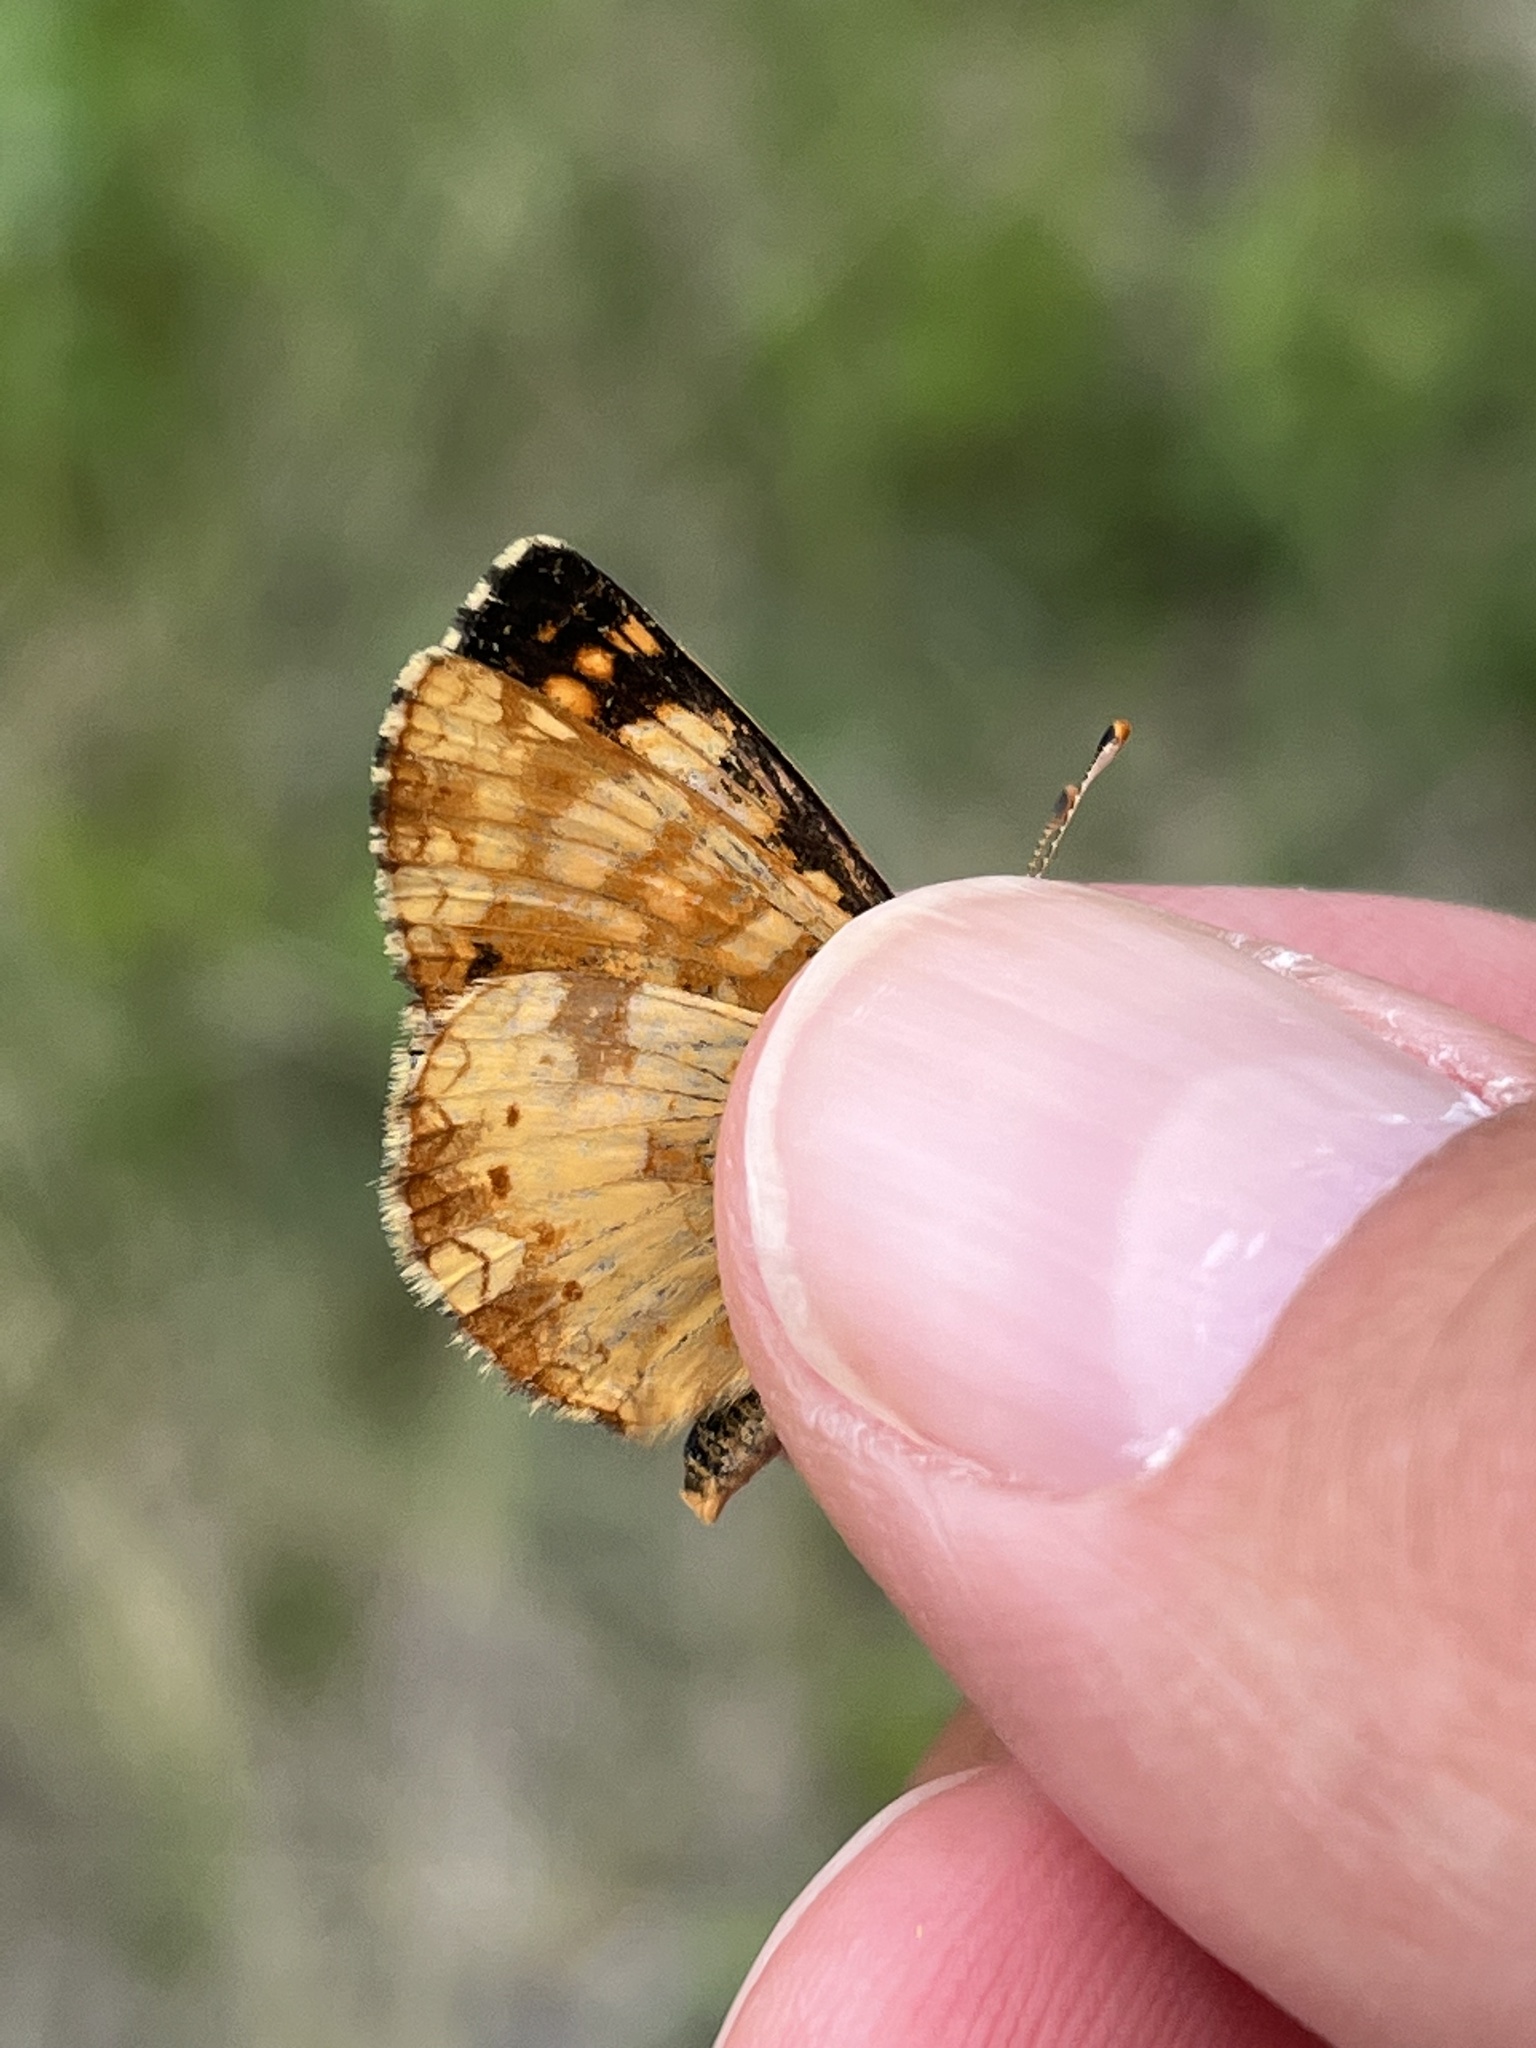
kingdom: Animalia
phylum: Arthropoda
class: Insecta
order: Lepidoptera
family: Nymphalidae
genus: Phyciodes
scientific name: Phyciodes tharos
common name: Pearl crescent
